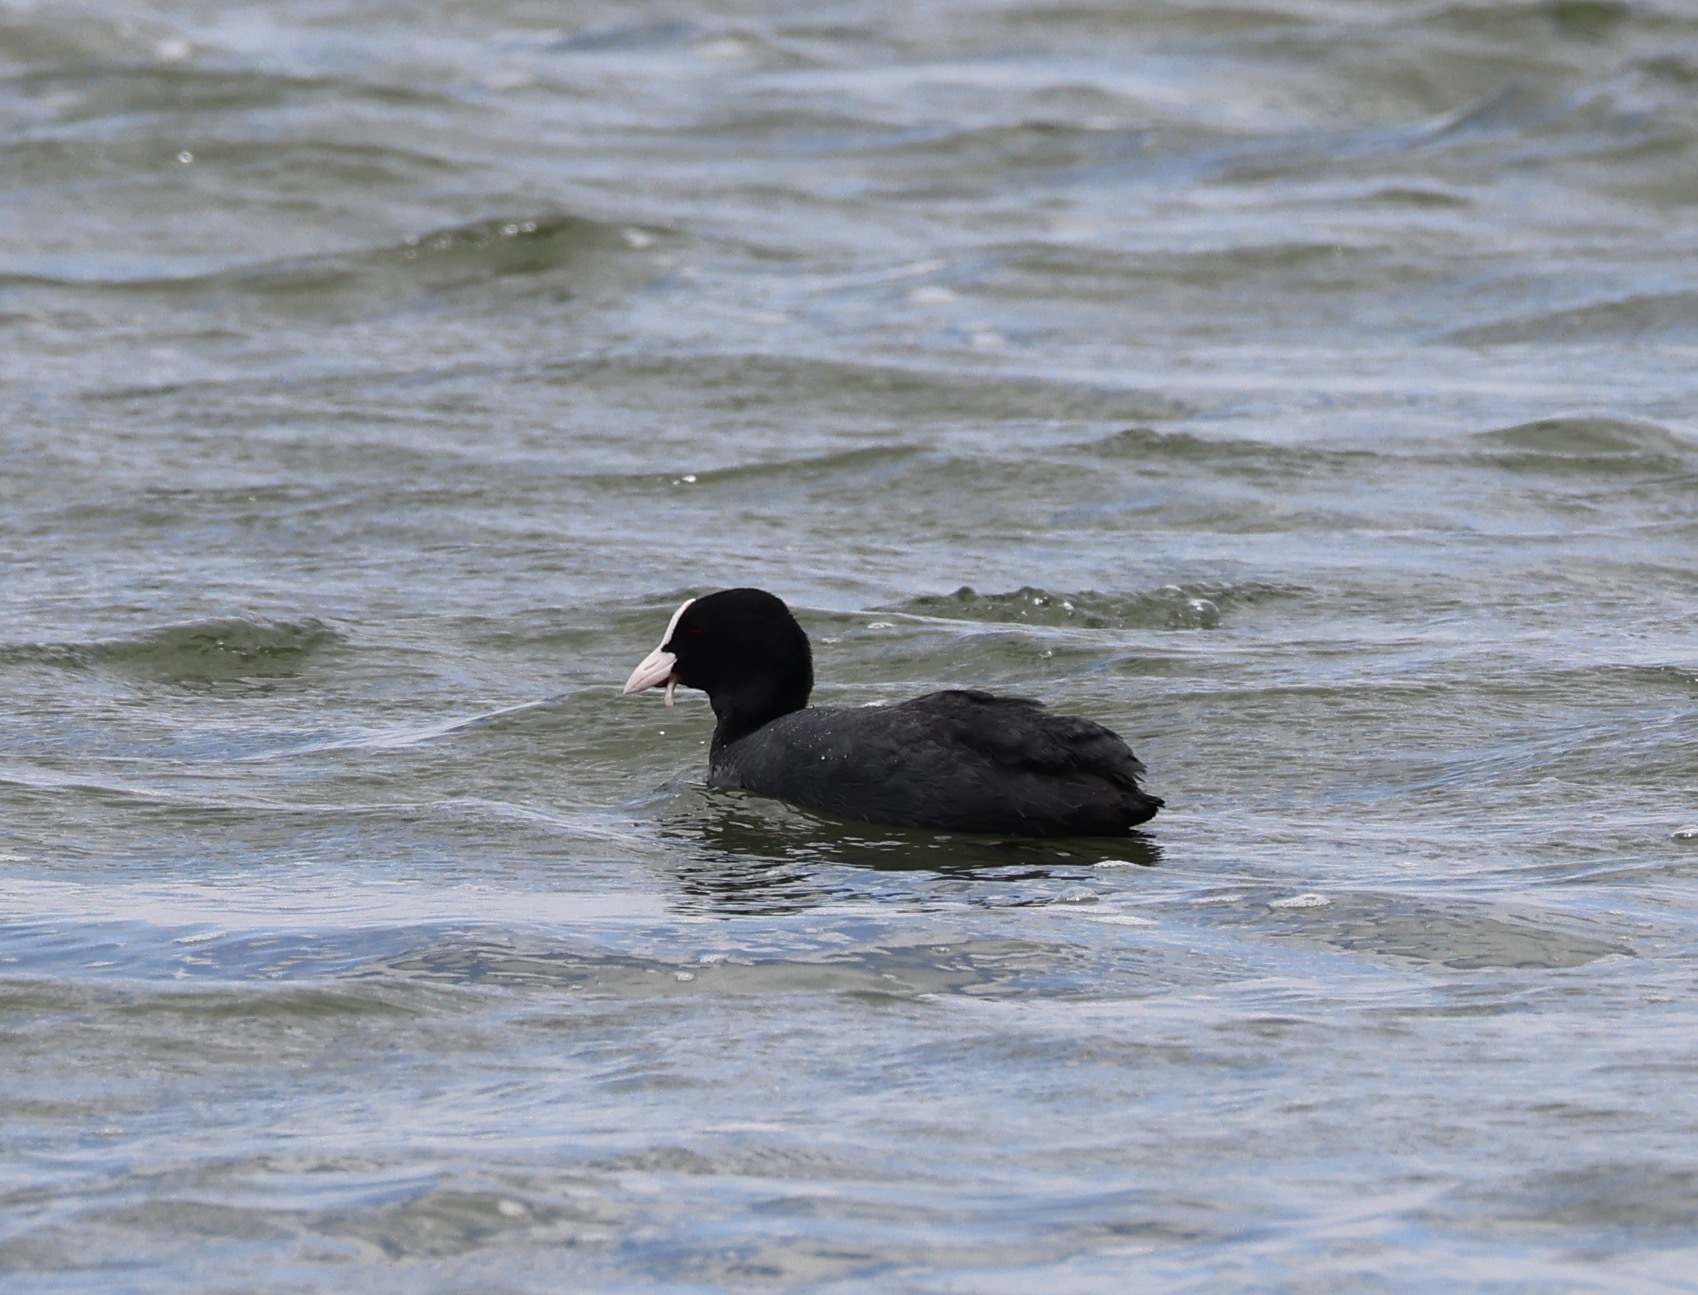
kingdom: Animalia
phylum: Chordata
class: Aves
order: Gruiformes
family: Rallidae
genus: Fulica
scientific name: Fulica atra
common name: Eurasian coot
